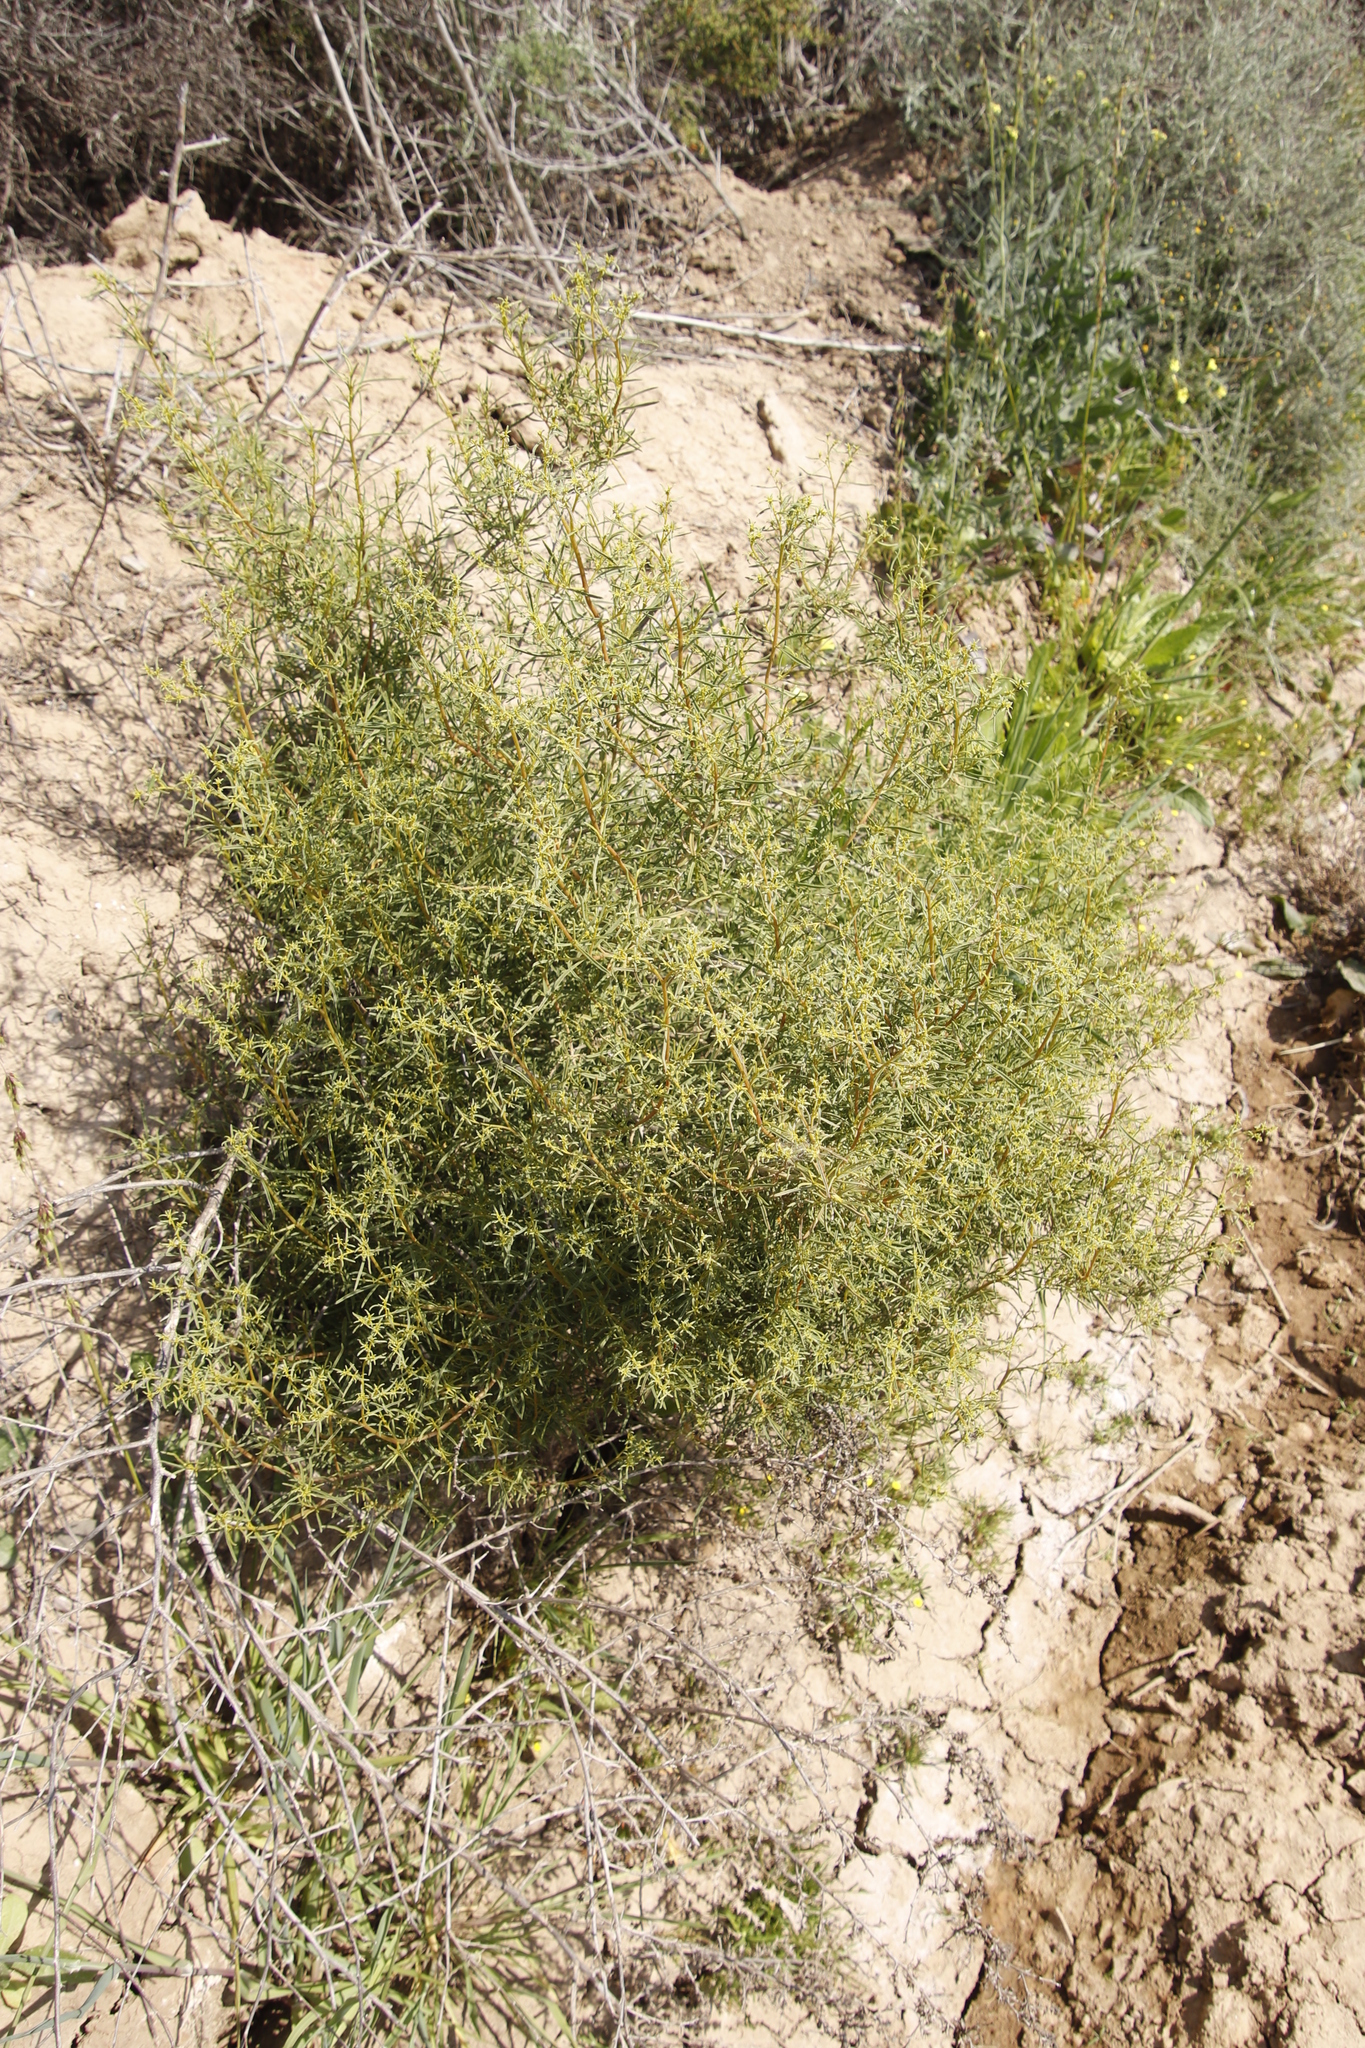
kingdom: Plantae
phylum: Tracheophyta
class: Magnoliopsida
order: Caryophyllales
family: Aizoaceae
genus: Aizoon
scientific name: Aizoon africanum
